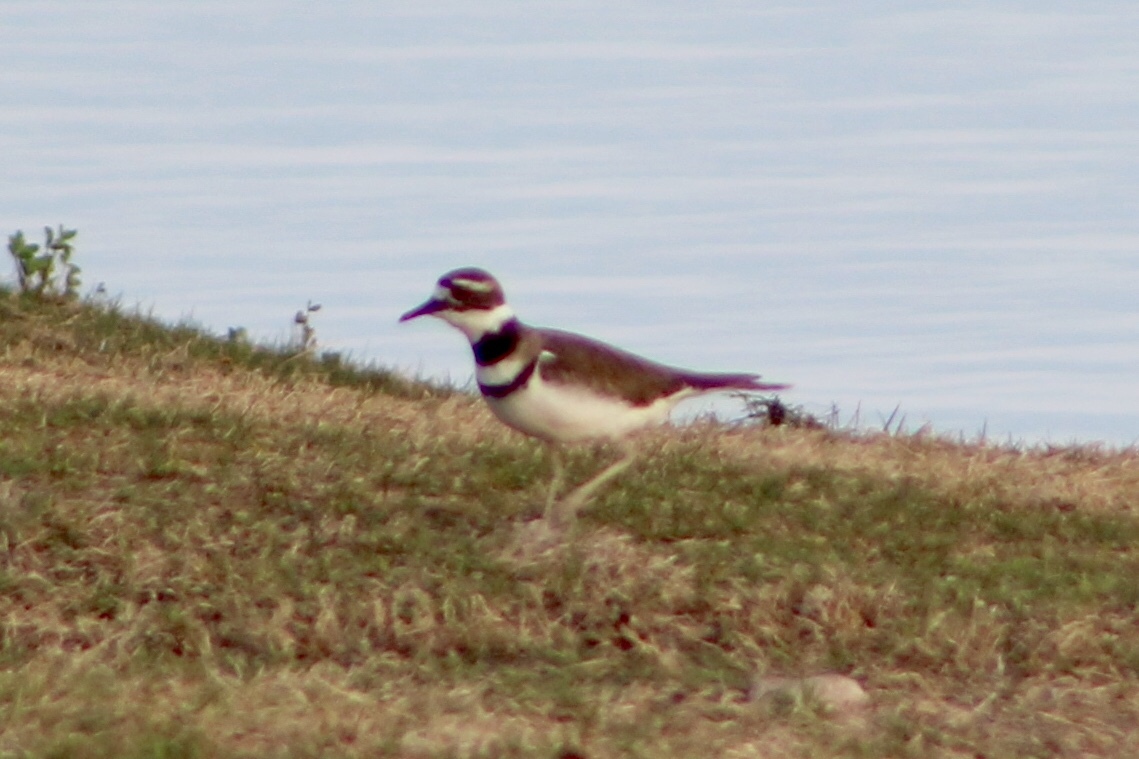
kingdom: Animalia
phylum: Chordata
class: Aves
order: Charadriiformes
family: Charadriidae
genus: Charadrius
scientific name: Charadrius vociferus
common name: Killdeer
